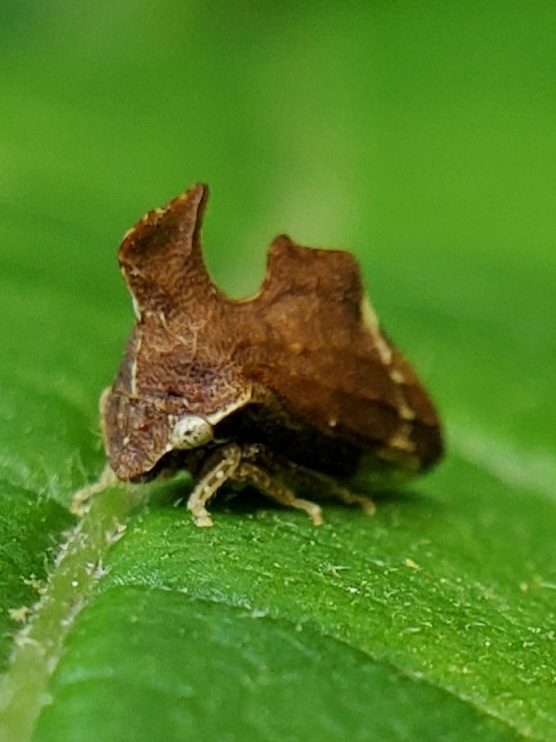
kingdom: Animalia
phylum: Arthropoda
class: Insecta
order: Hemiptera
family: Membracidae
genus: Entylia
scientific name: Entylia carinata
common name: Keeled treehopper
